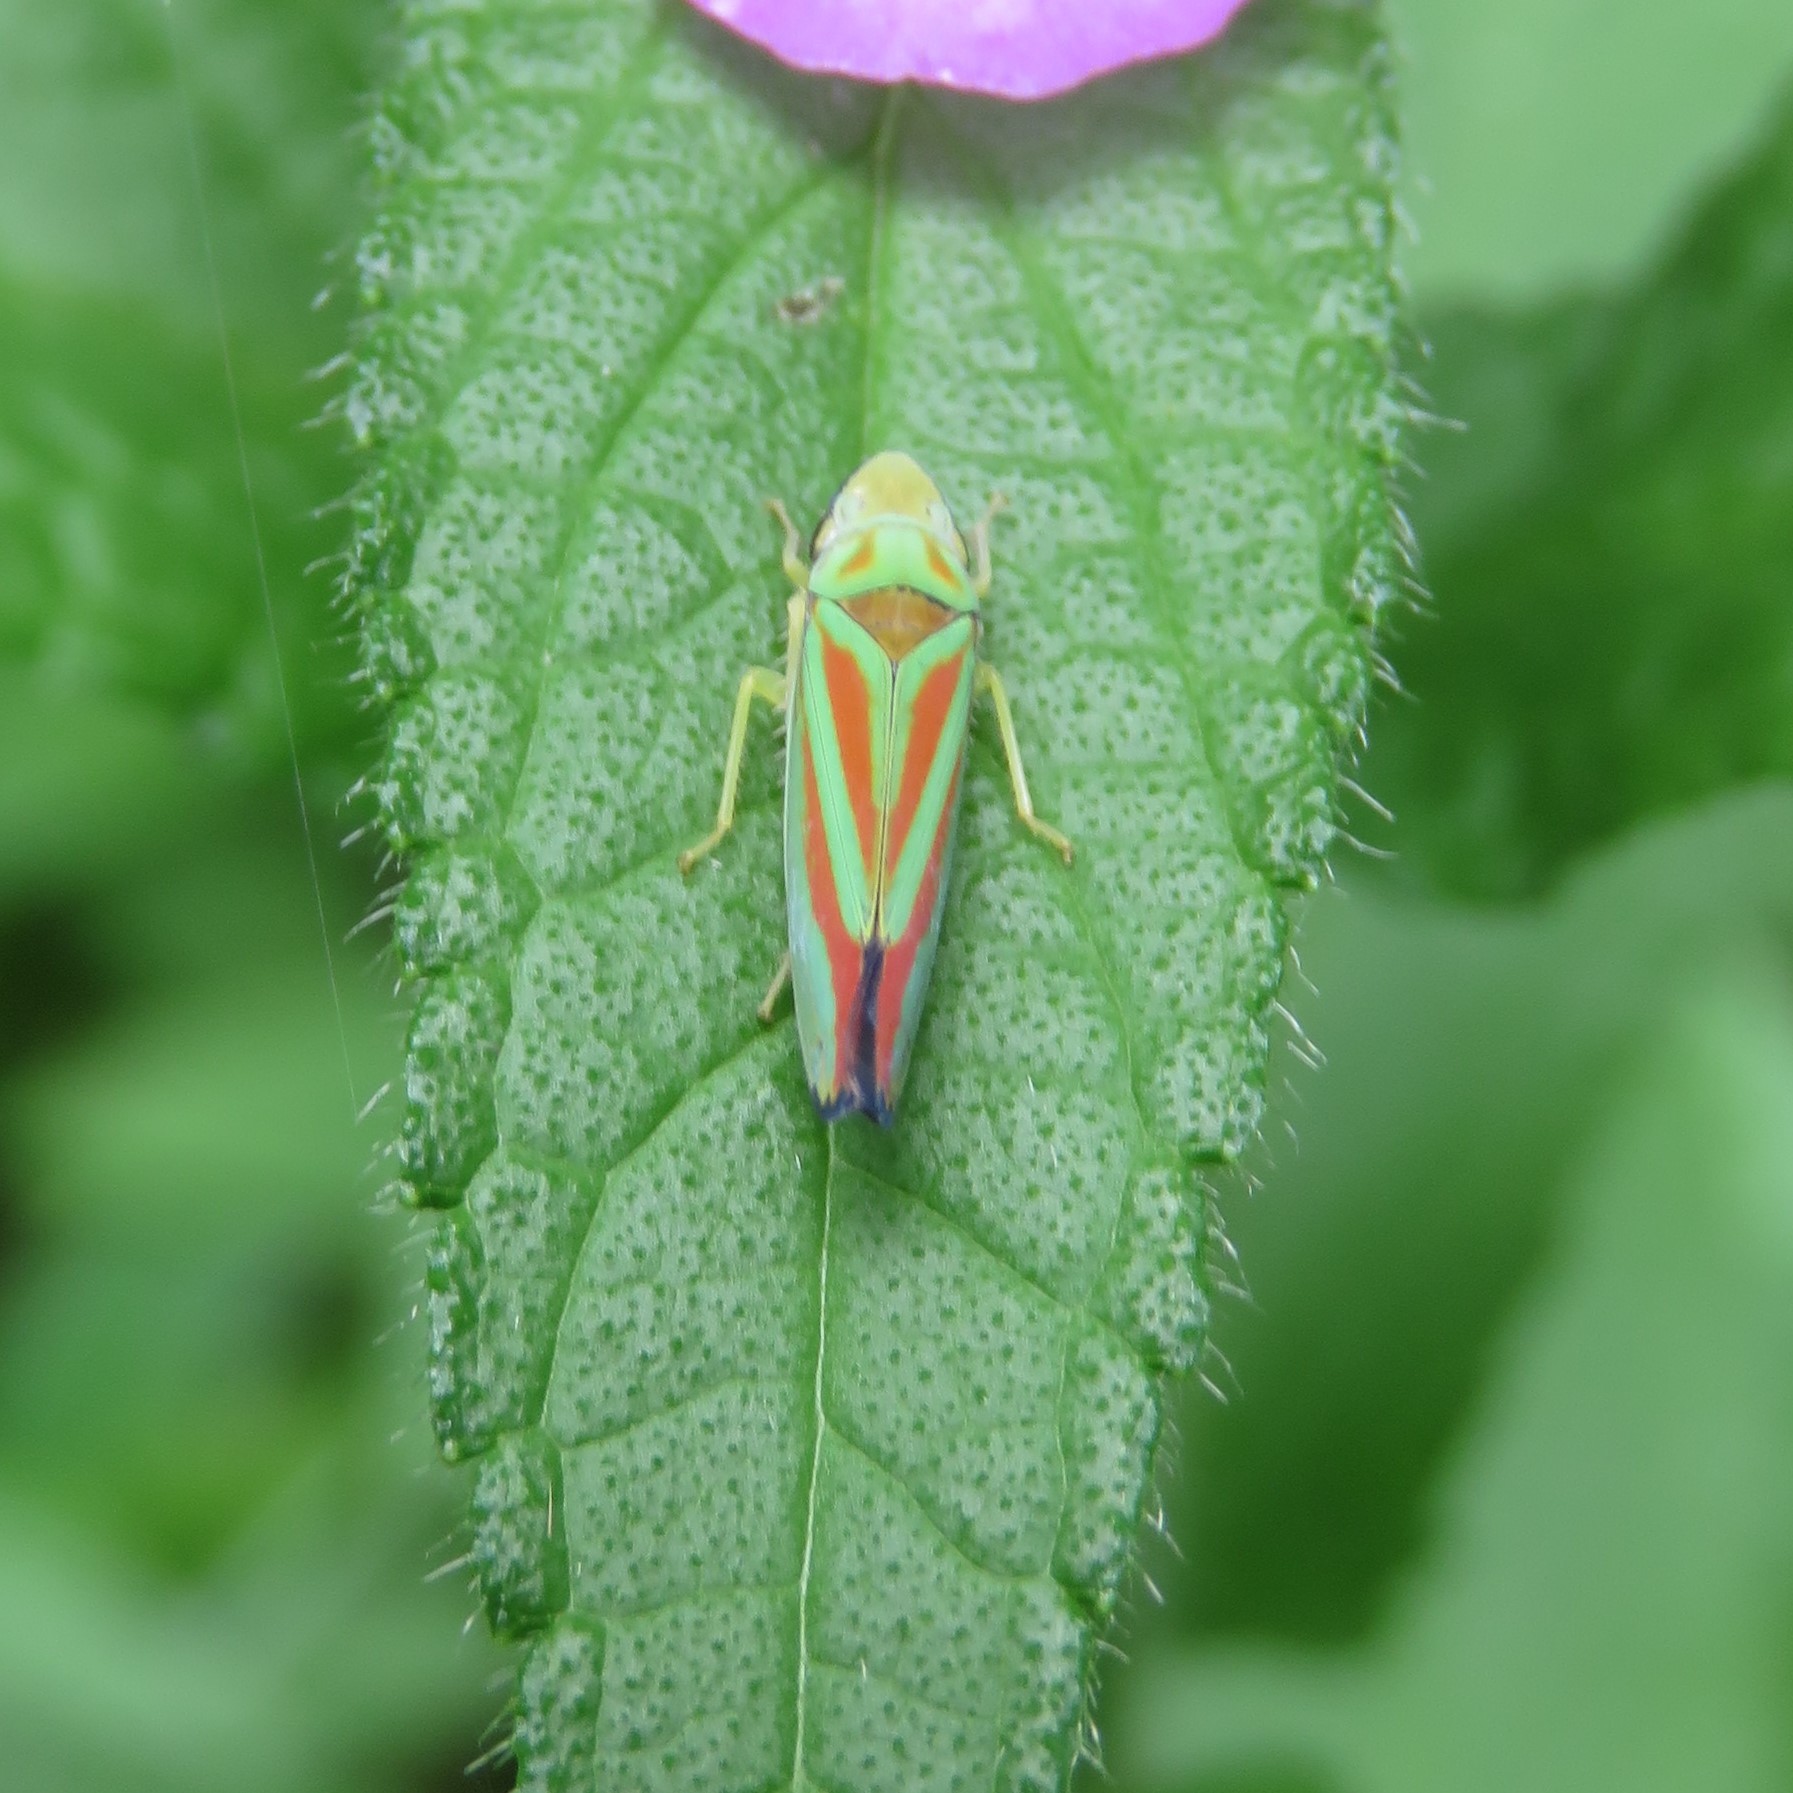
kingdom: Animalia
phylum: Arthropoda
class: Insecta
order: Hemiptera
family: Cicadellidae
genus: Graphocephala
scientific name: Graphocephala coccinea
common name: Candy-striped leafhopper
